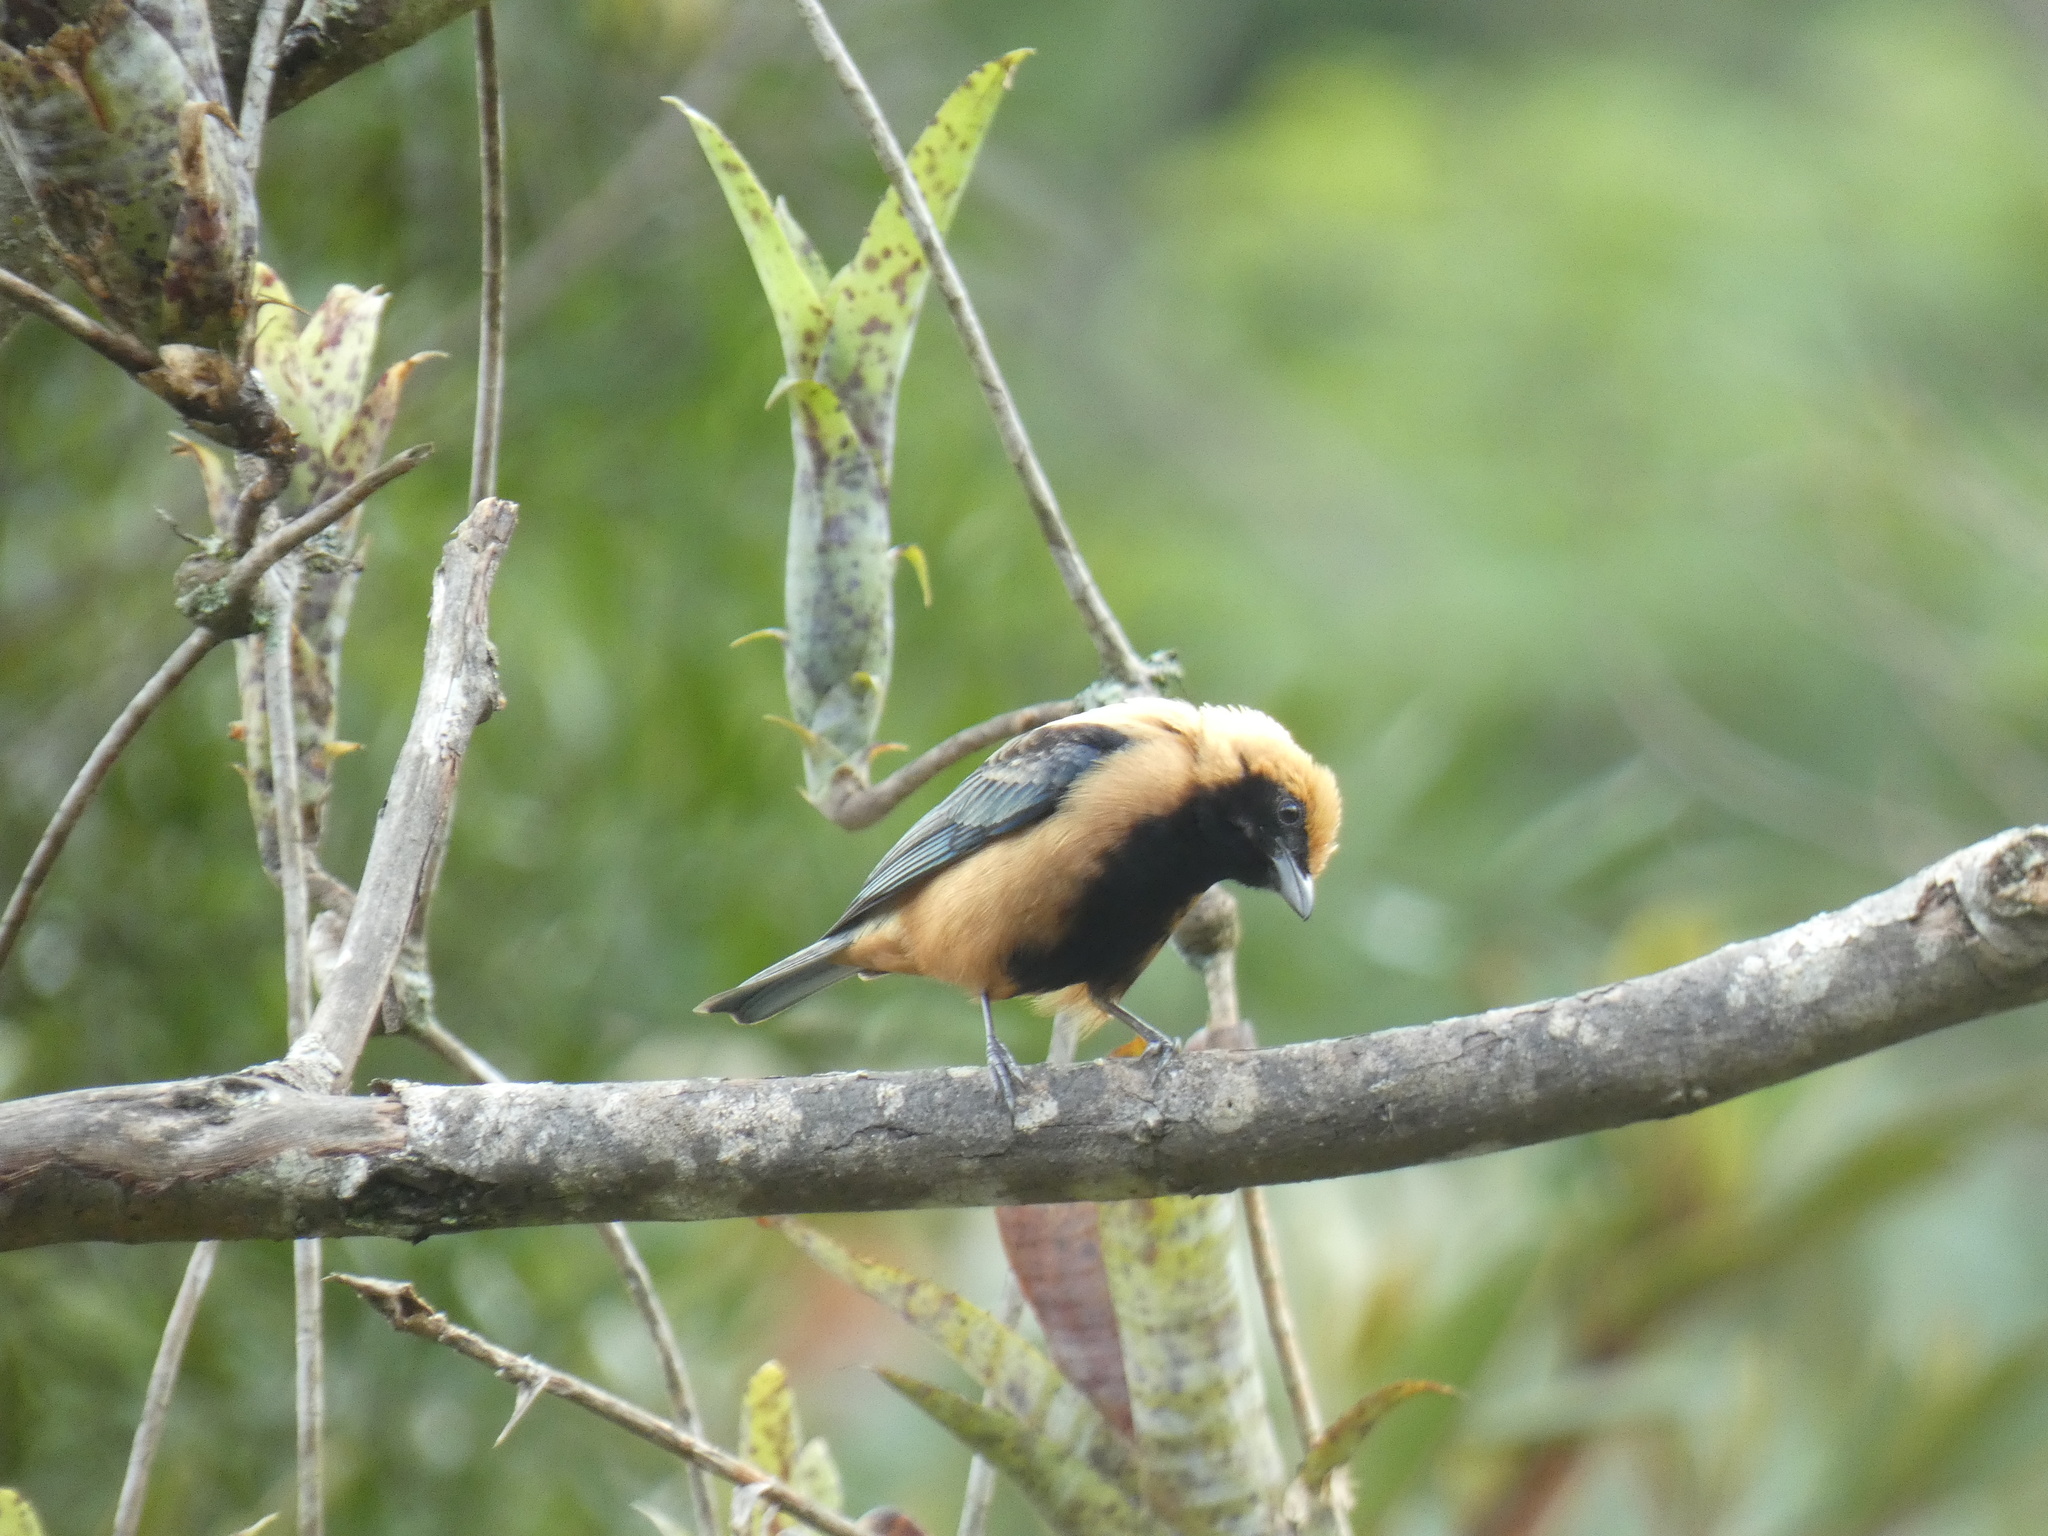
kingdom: Animalia
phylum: Chordata
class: Aves
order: Passeriformes
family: Thraupidae
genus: Stilpnia
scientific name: Stilpnia cayana
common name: Burnished-buff tanager
